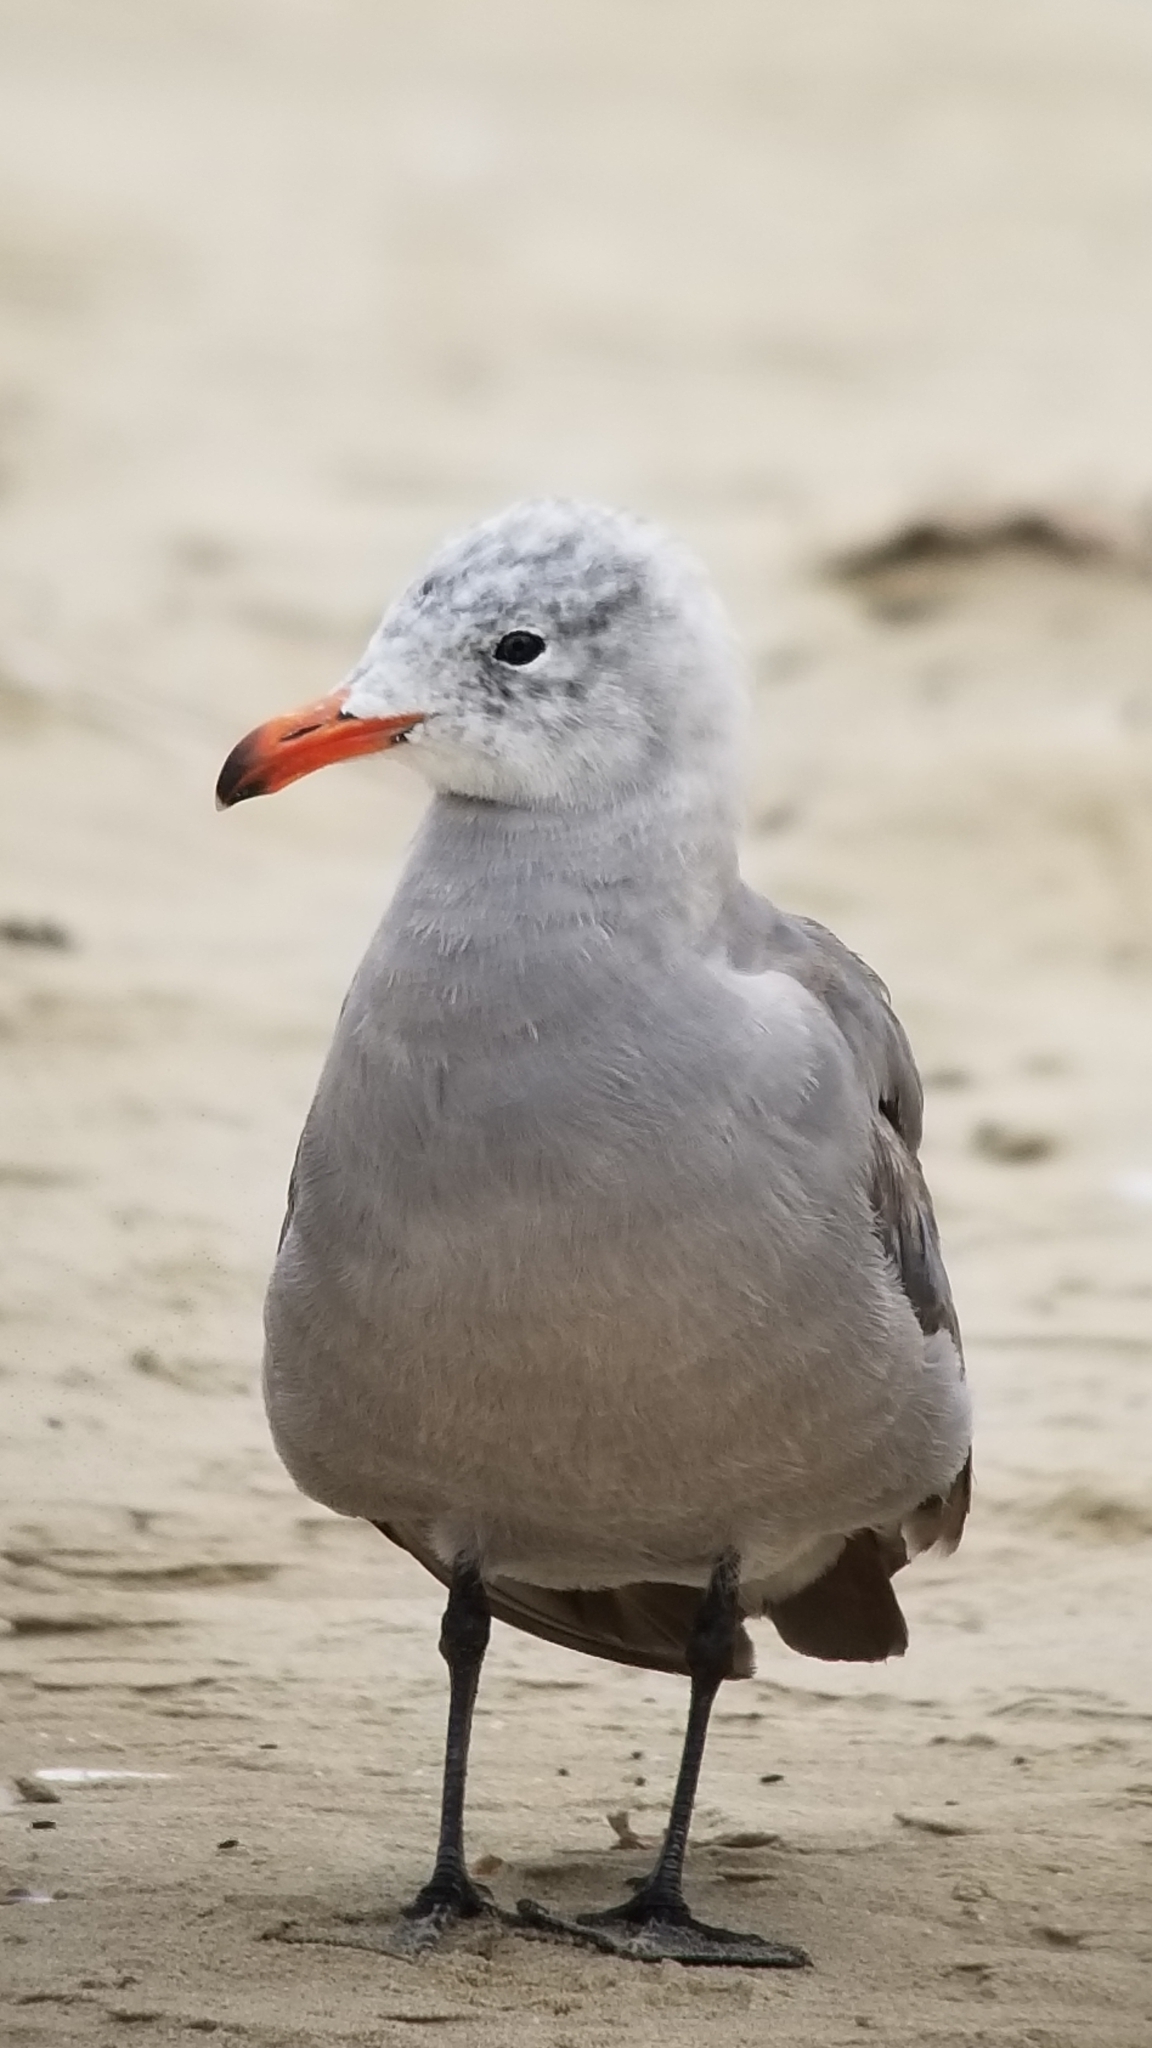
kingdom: Animalia
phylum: Chordata
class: Aves
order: Charadriiformes
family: Laridae
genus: Larus
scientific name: Larus heermanni
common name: Heermann's gull
